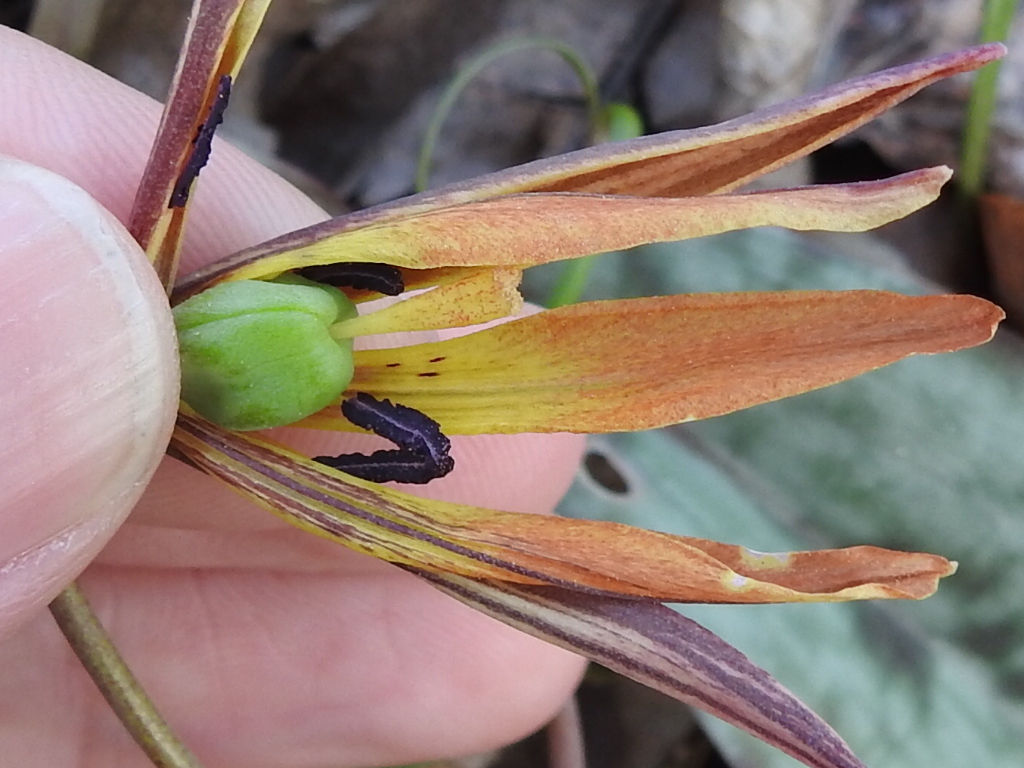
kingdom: Plantae
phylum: Tracheophyta
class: Liliopsida
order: Liliales
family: Liliaceae
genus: Erythronium
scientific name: Erythronium umbilicatum
